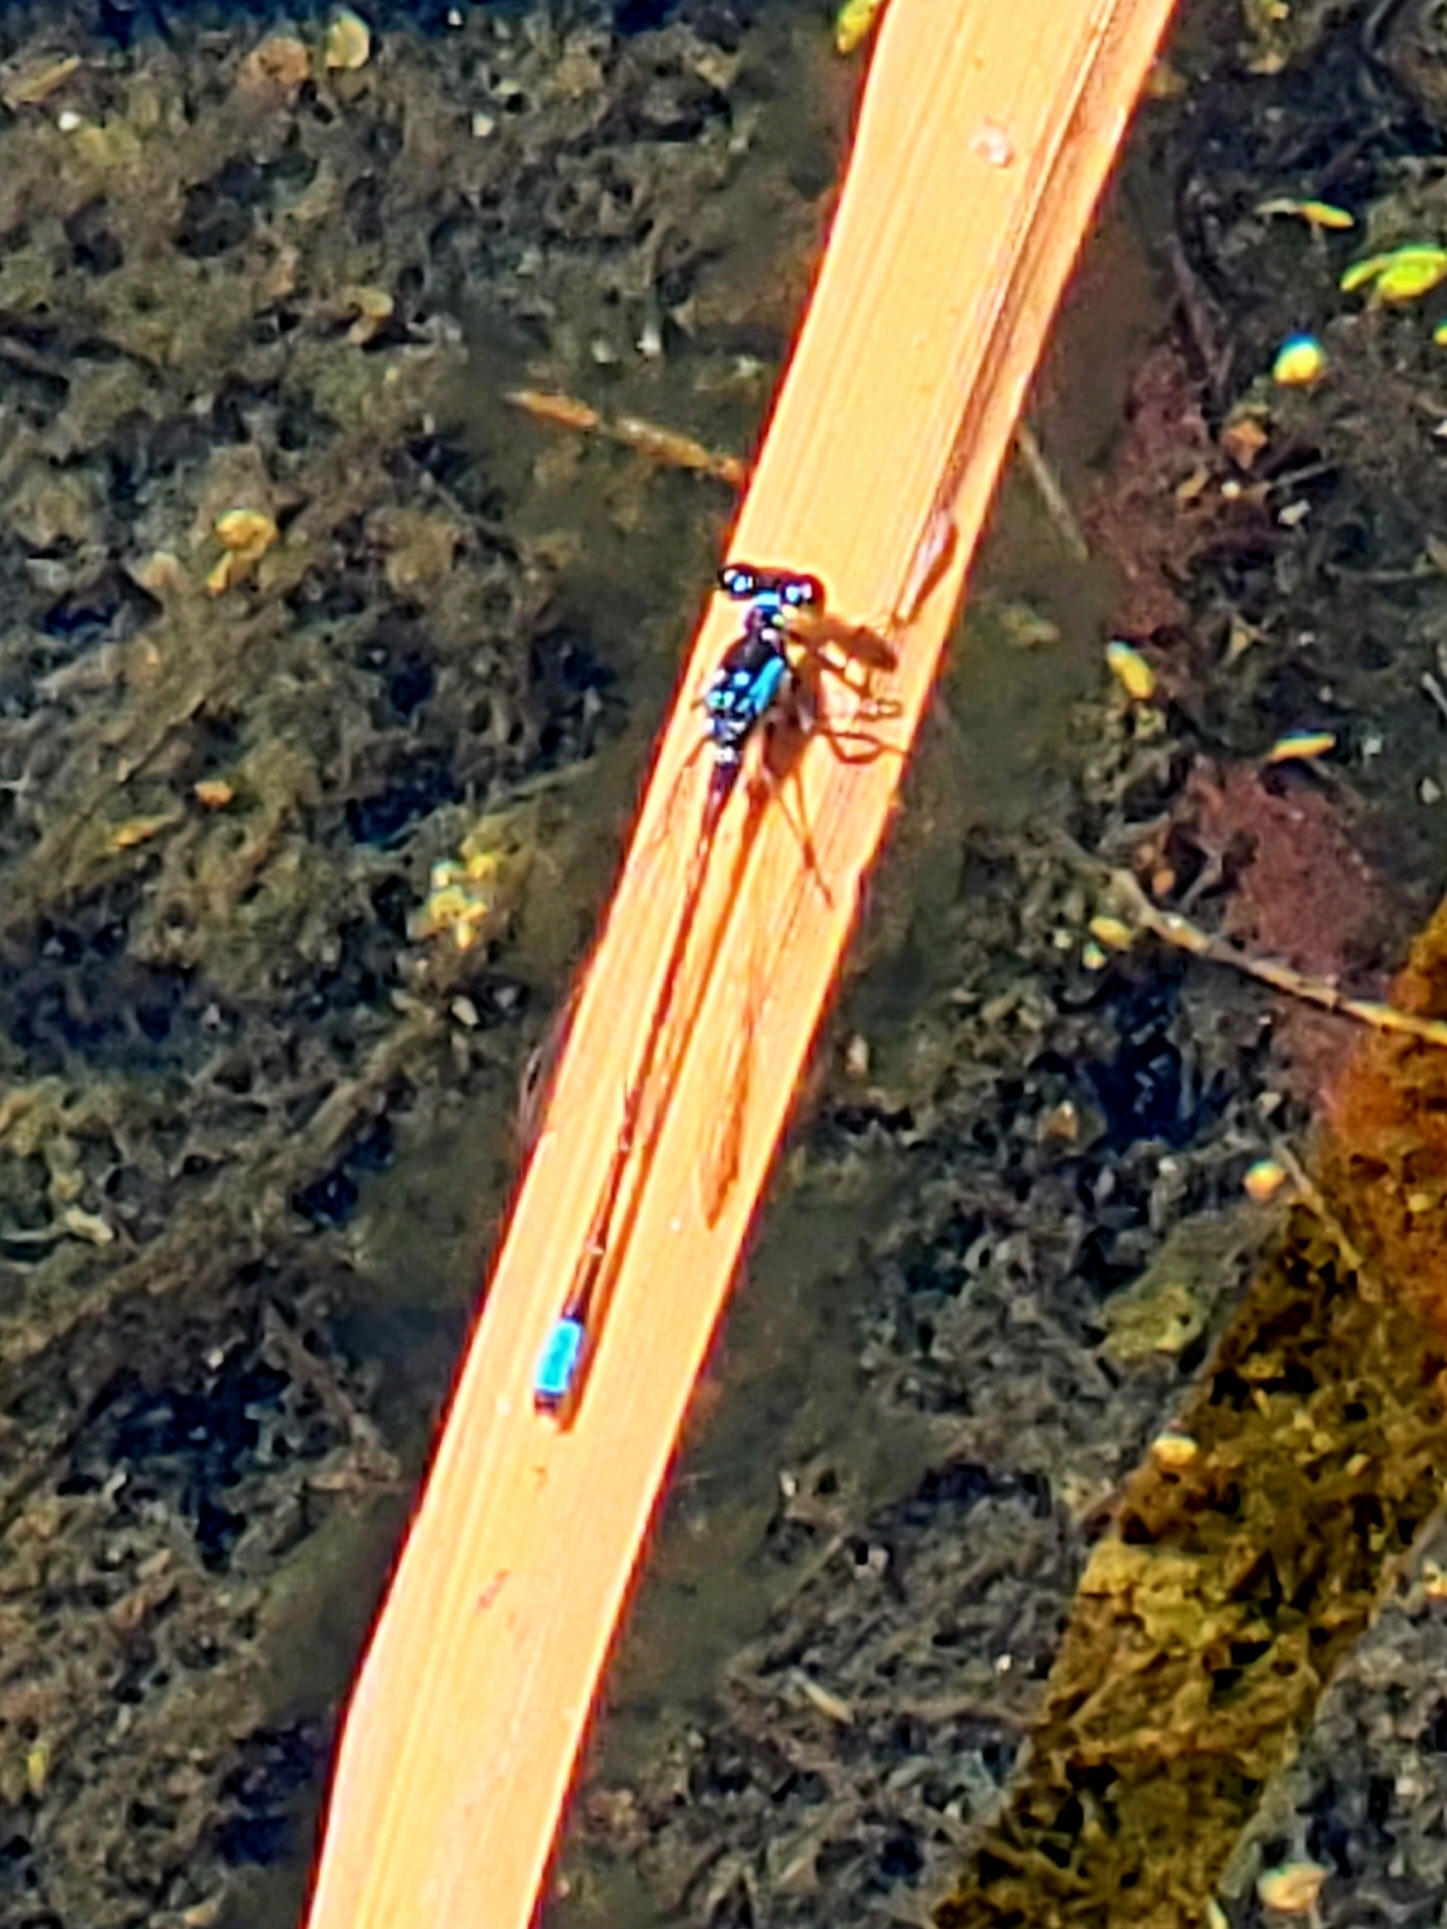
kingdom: Animalia
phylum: Arthropoda
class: Insecta
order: Odonata
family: Coenagrionidae
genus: Ischnura
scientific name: Ischnura cervula
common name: Pacific forktail
